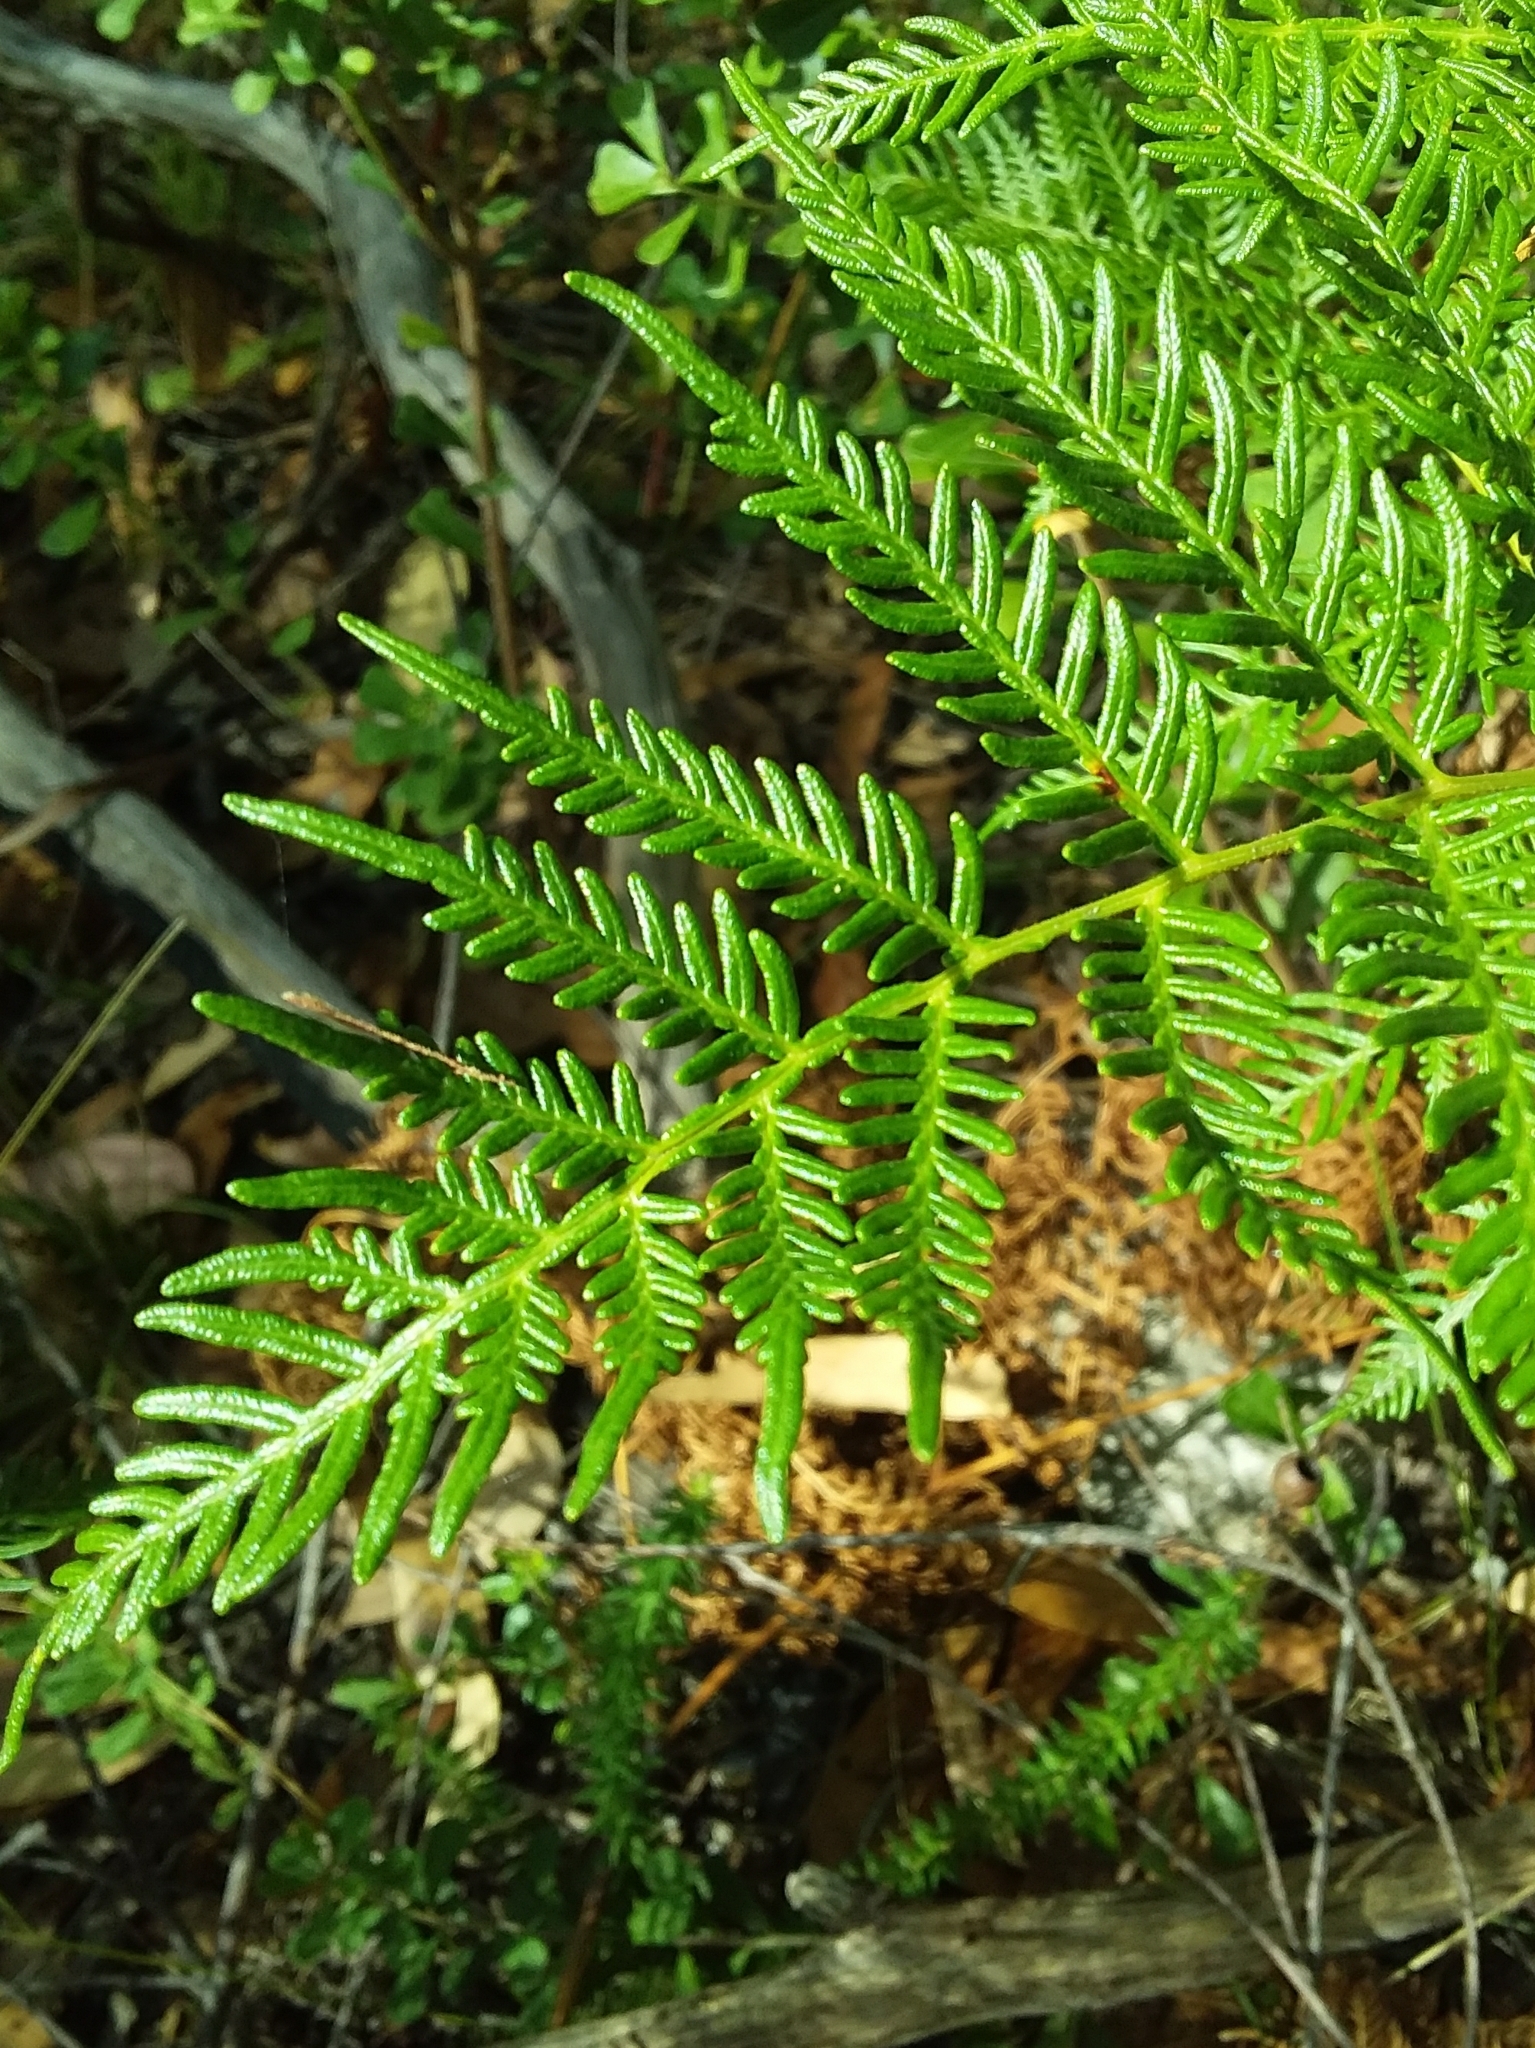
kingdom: Plantae
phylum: Tracheophyta
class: Polypodiopsida
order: Polypodiales
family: Dennstaedtiaceae
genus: Pteridium
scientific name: Pteridium esculentum
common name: Bracken fern
